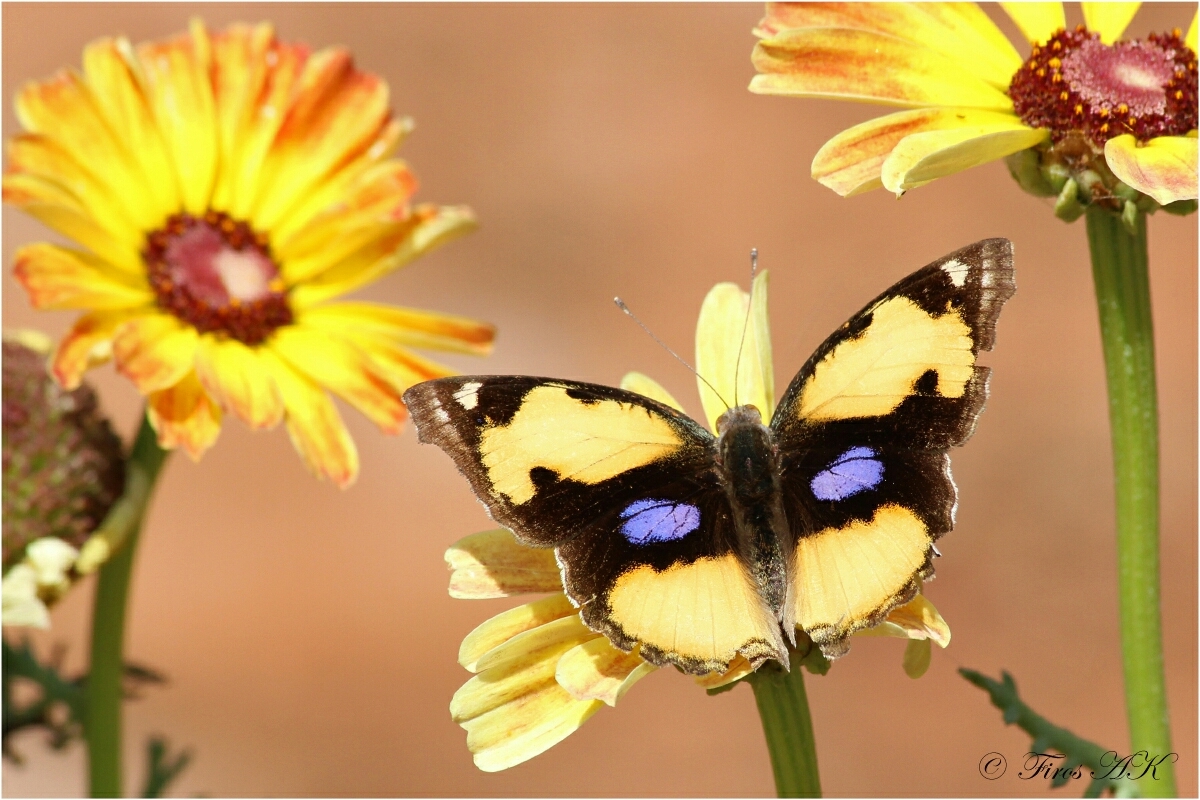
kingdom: Animalia
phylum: Arthropoda
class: Insecta
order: Lepidoptera
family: Nymphalidae
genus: Junonia
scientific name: Junonia hierta
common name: Yellow pansy
